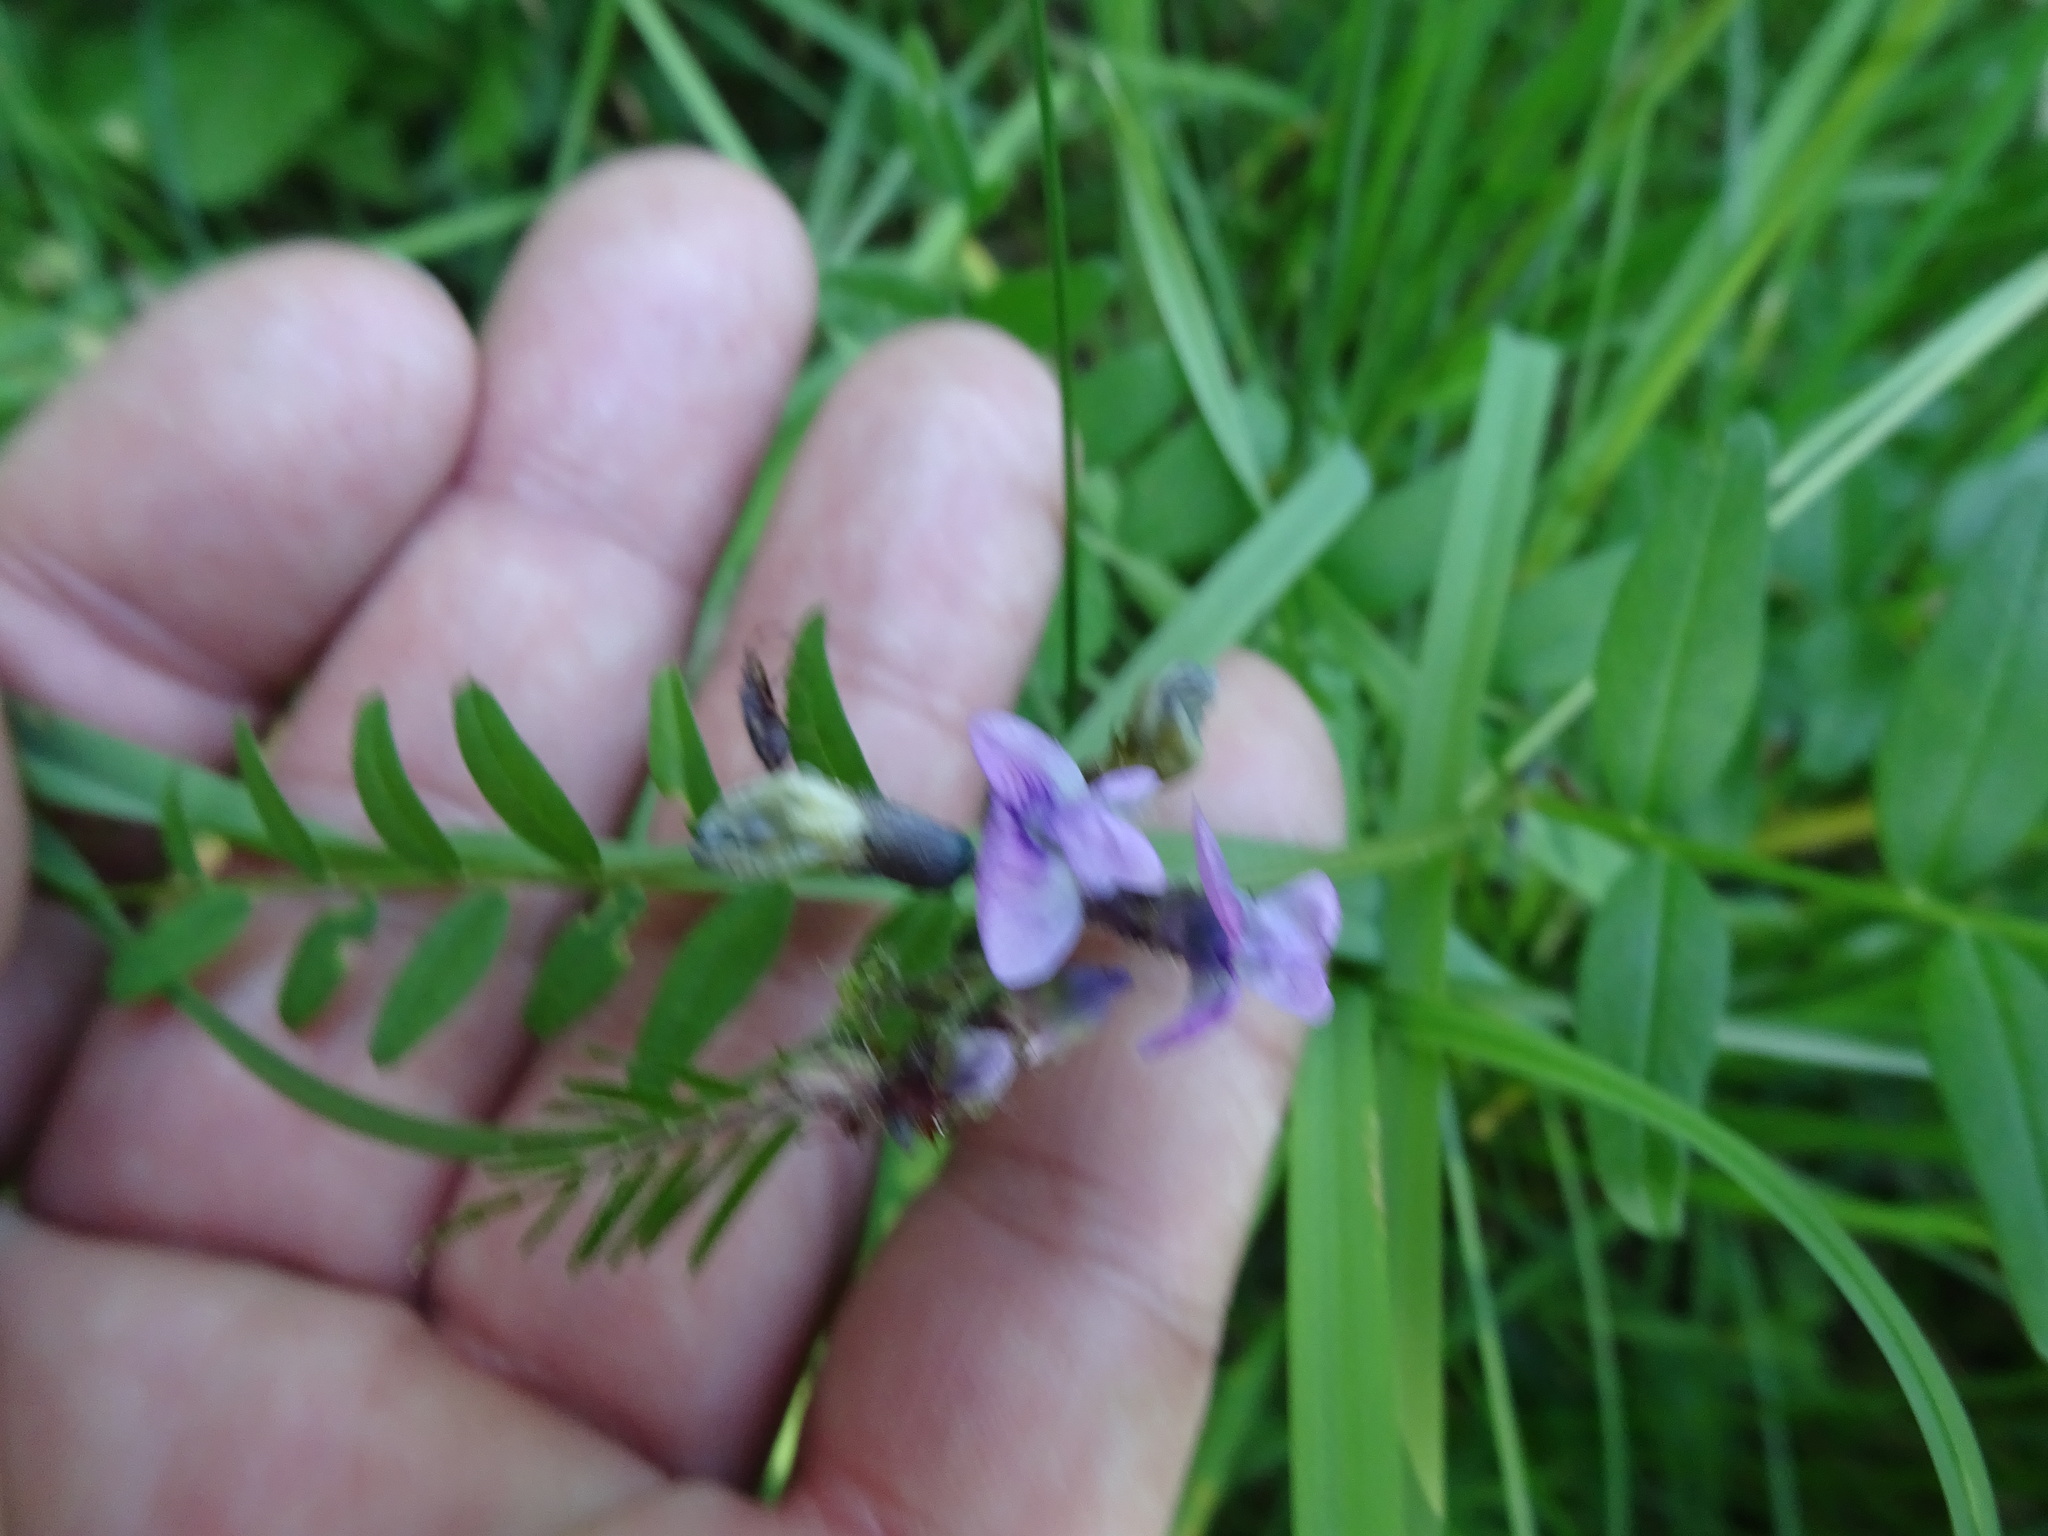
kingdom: Plantae
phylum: Tracheophyta
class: Magnoliopsida
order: Fabales
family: Fabaceae
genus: Vicia
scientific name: Vicia sepium
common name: Bush vetch
